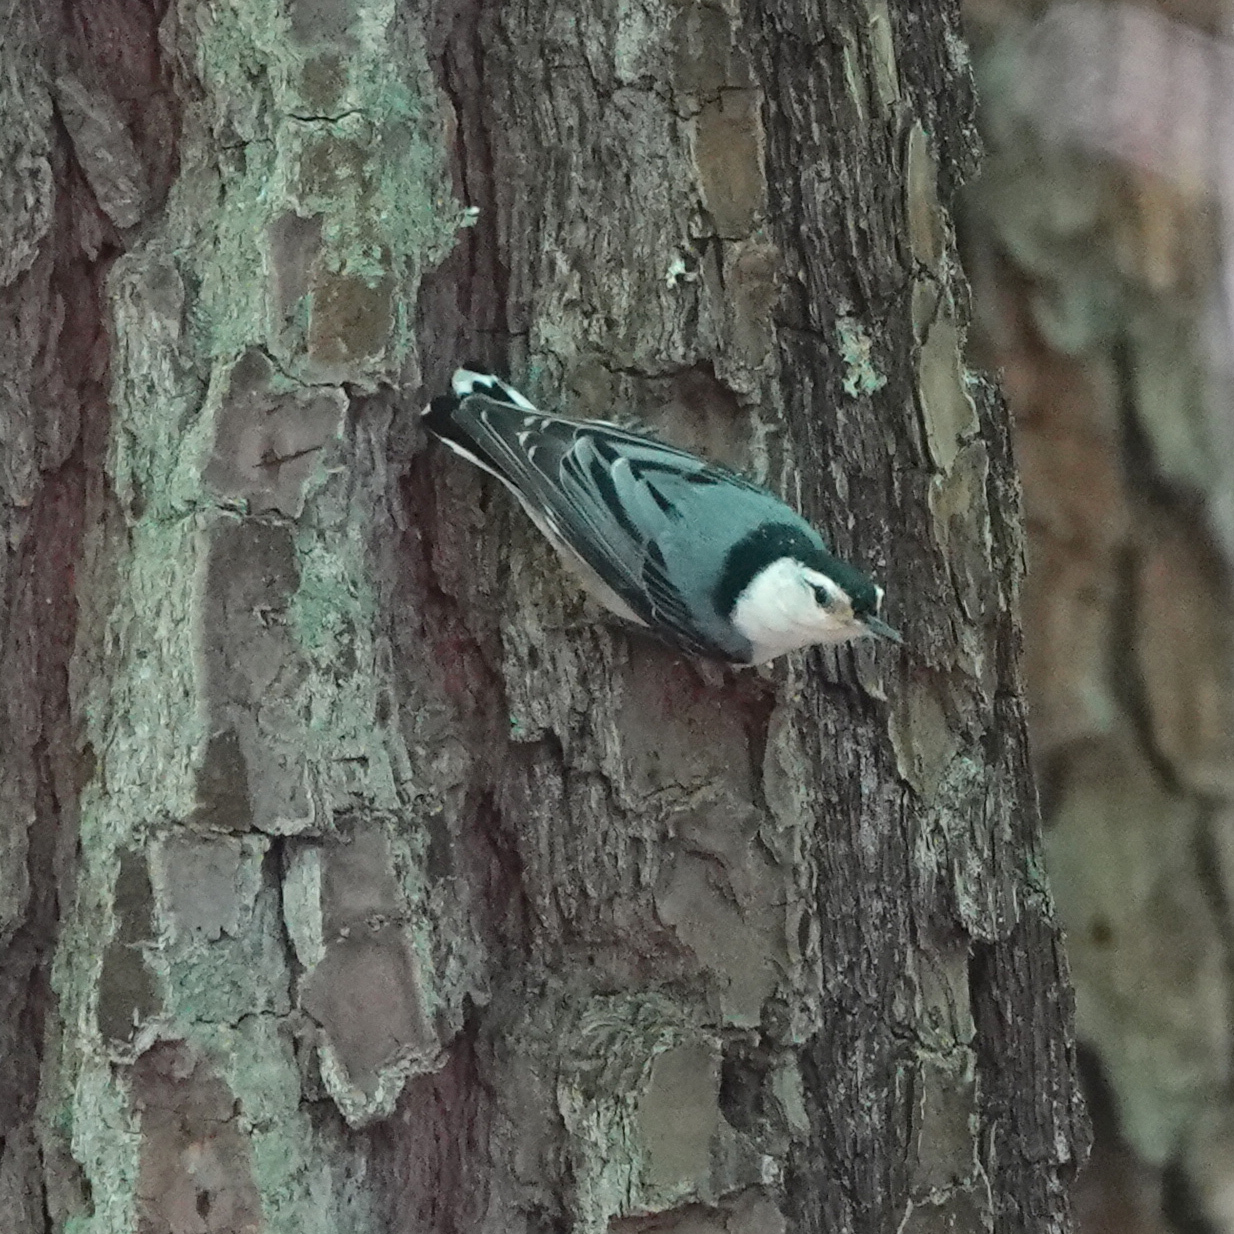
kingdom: Animalia
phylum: Chordata
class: Aves
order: Passeriformes
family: Sittidae
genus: Sitta
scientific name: Sitta carolinensis
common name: White-breasted nuthatch
